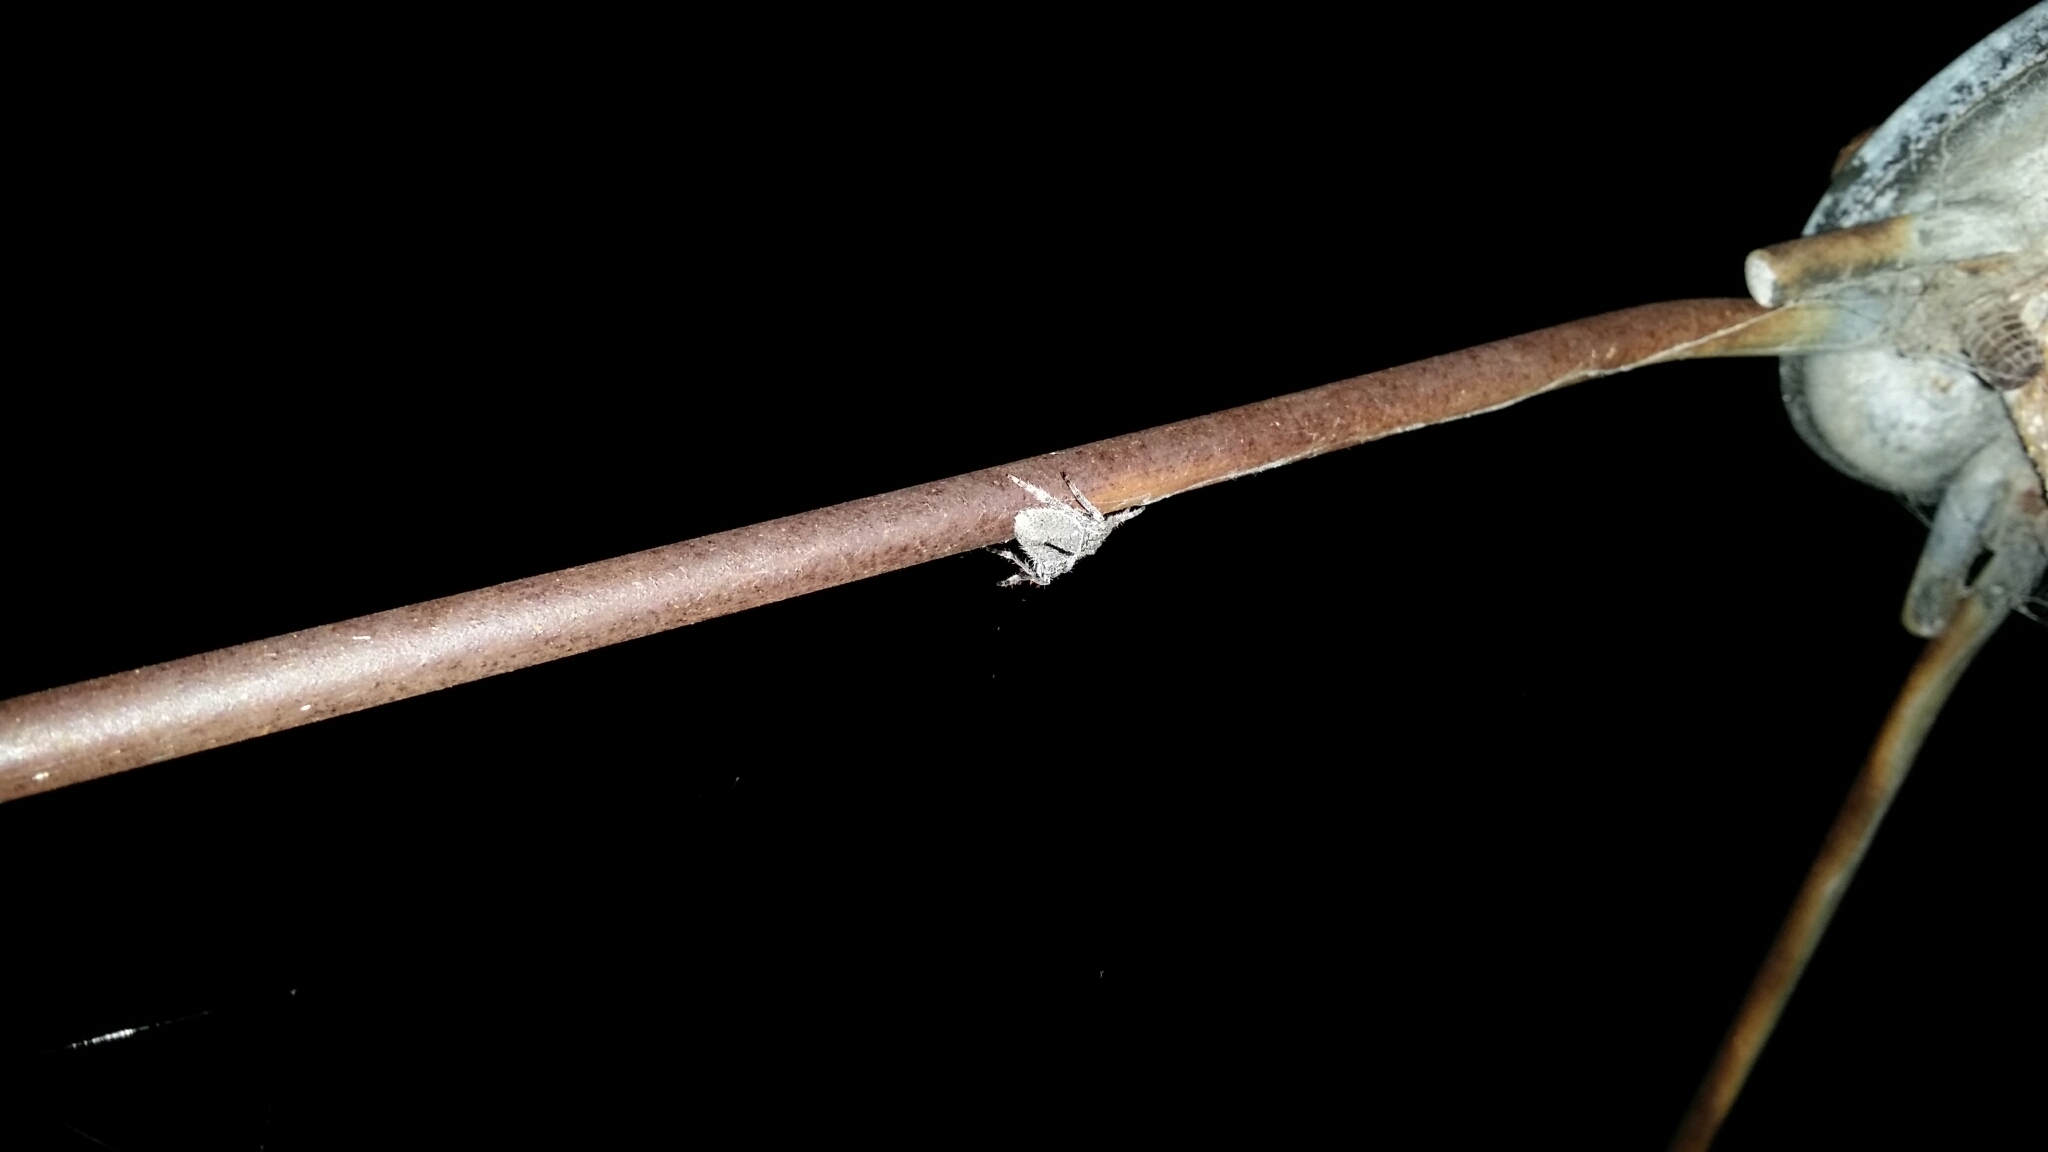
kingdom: Animalia
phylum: Arthropoda
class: Arachnida
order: Araneae
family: Araneidae
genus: Hortophora
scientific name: Hortophora biapicata
